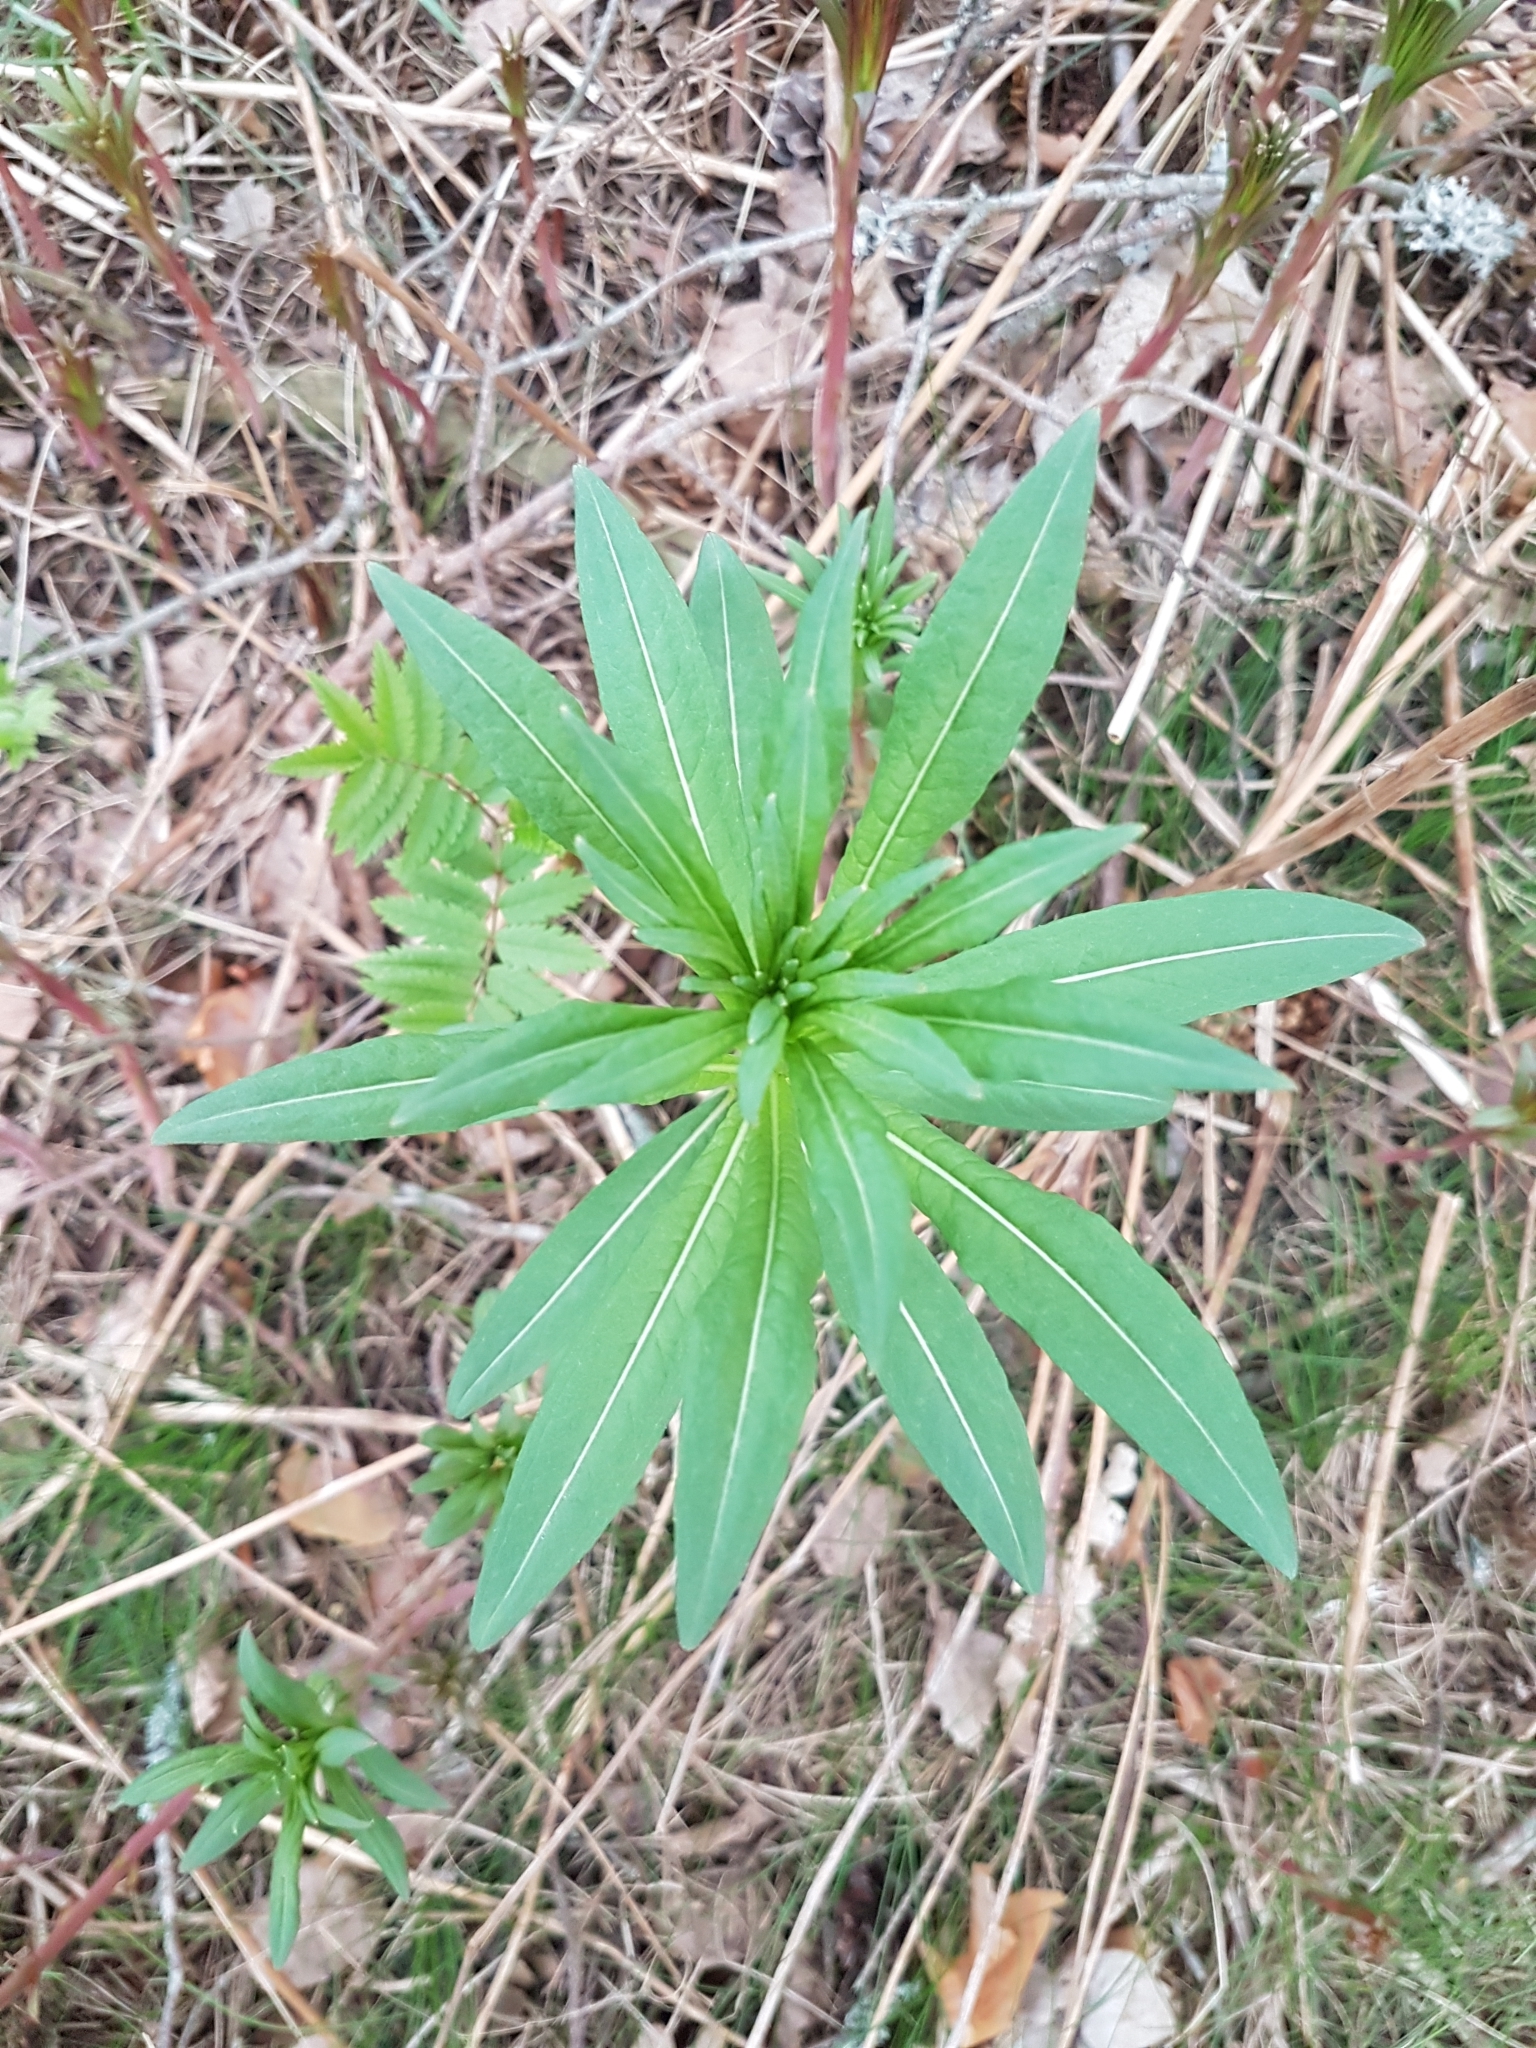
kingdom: Plantae
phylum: Tracheophyta
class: Magnoliopsida
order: Myrtales
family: Onagraceae
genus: Chamaenerion
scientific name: Chamaenerion angustifolium
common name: Fireweed
